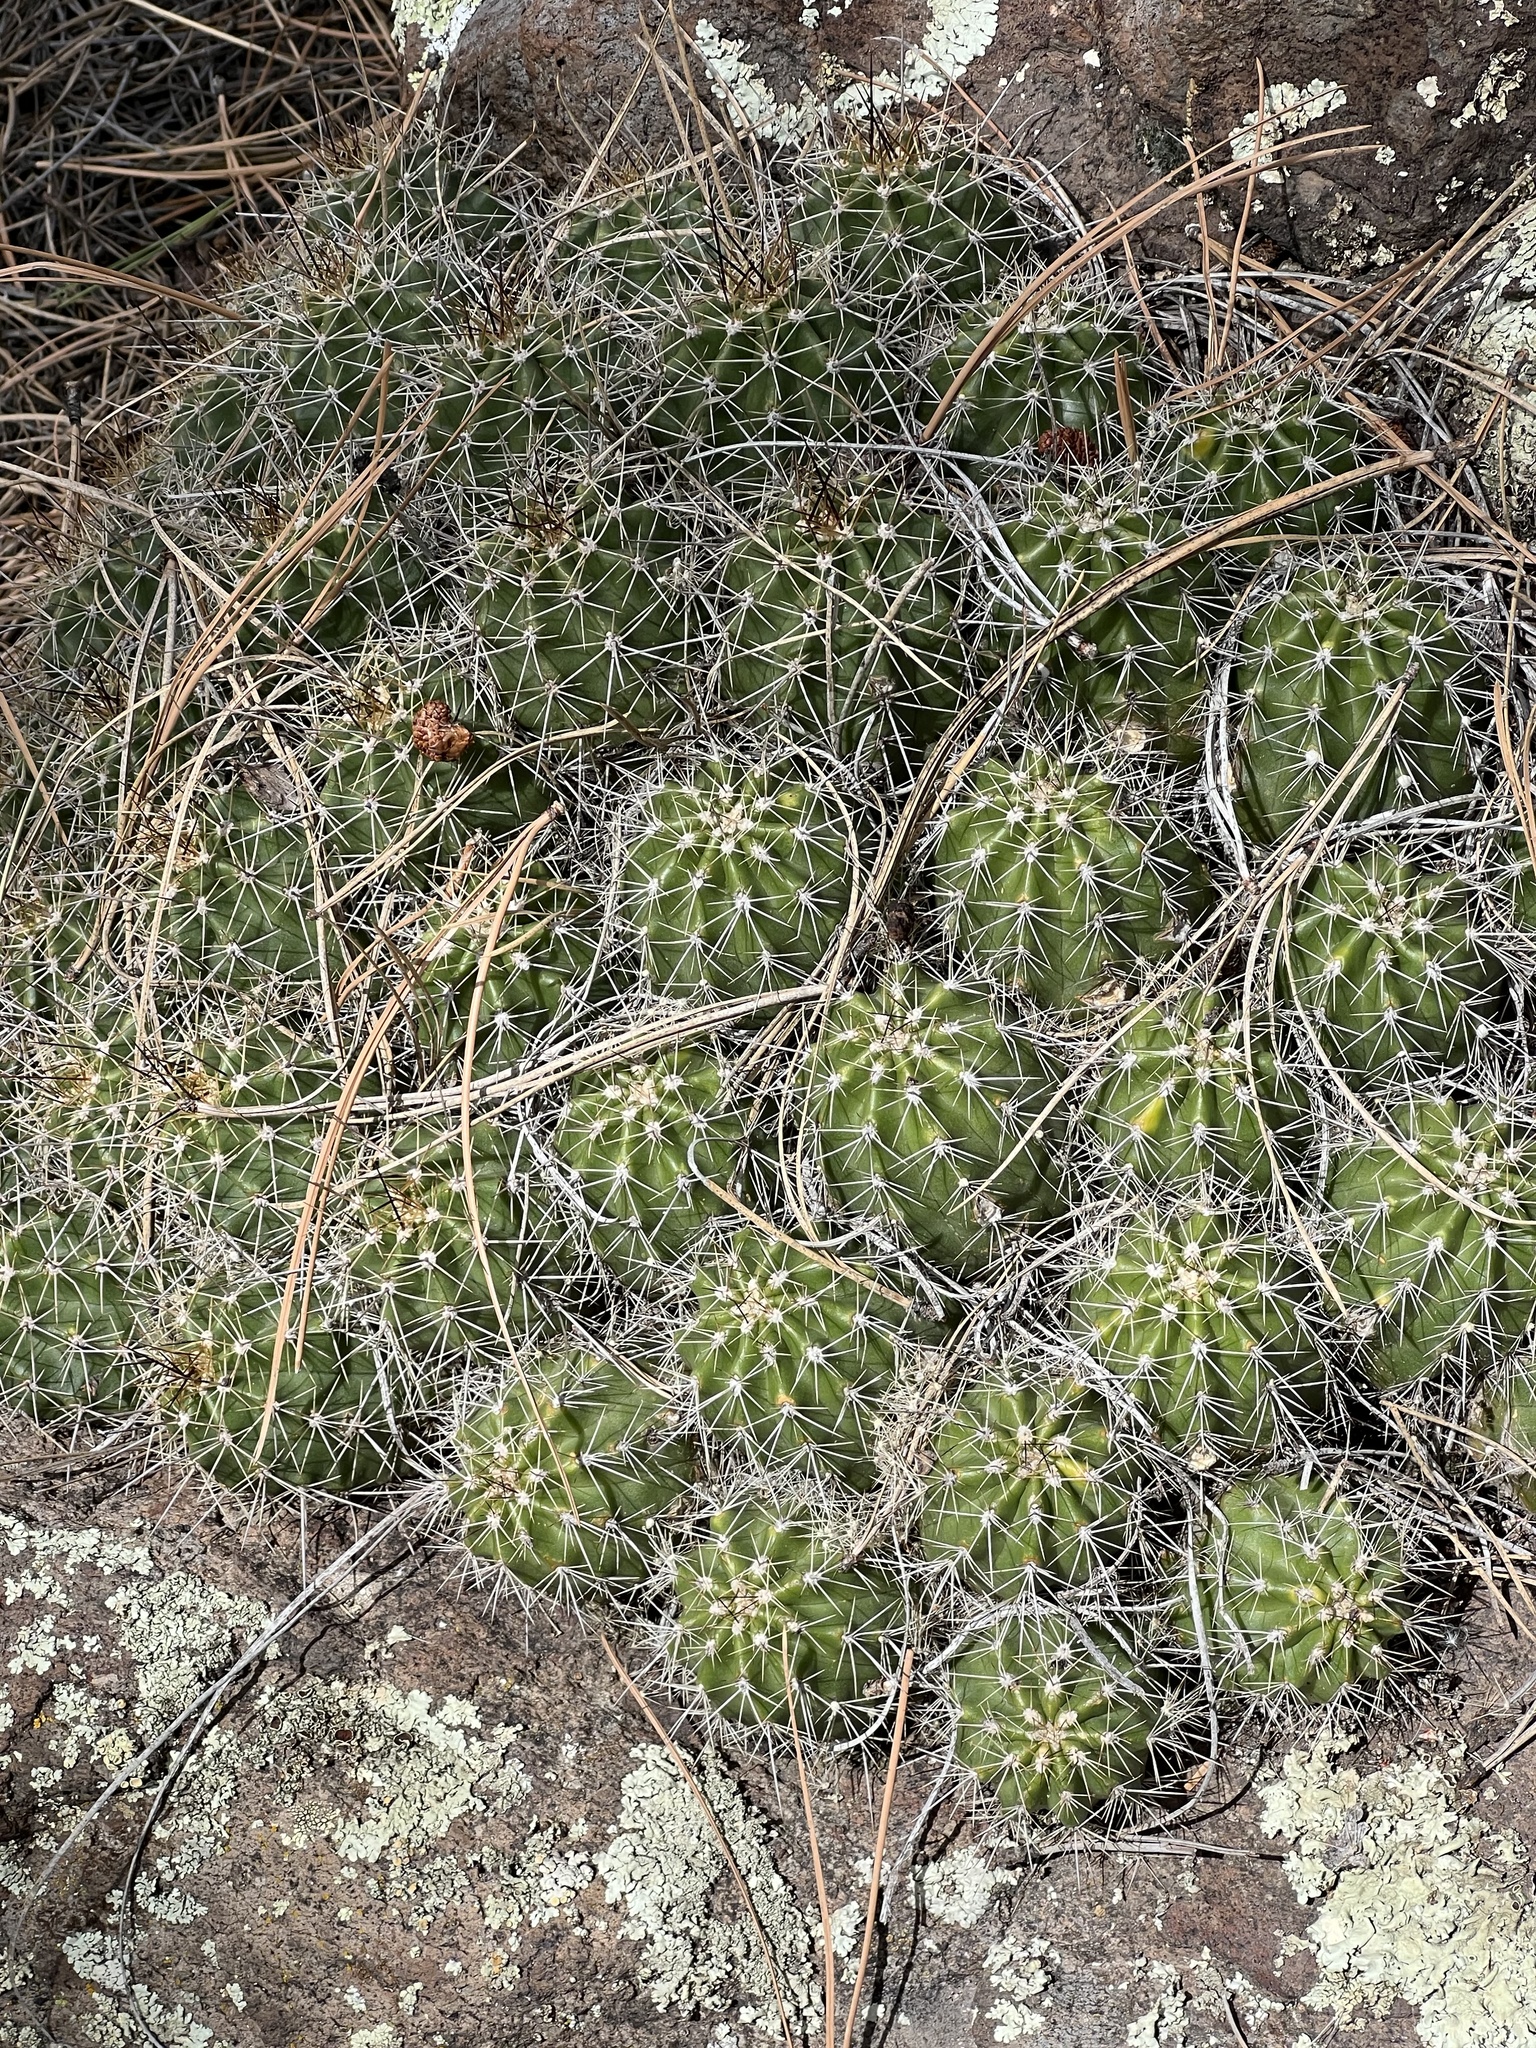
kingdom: Plantae
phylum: Tracheophyta
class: Magnoliopsida
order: Caryophyllales
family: Cactaceae
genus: Echinocereus
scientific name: Echinocereus bakeri
